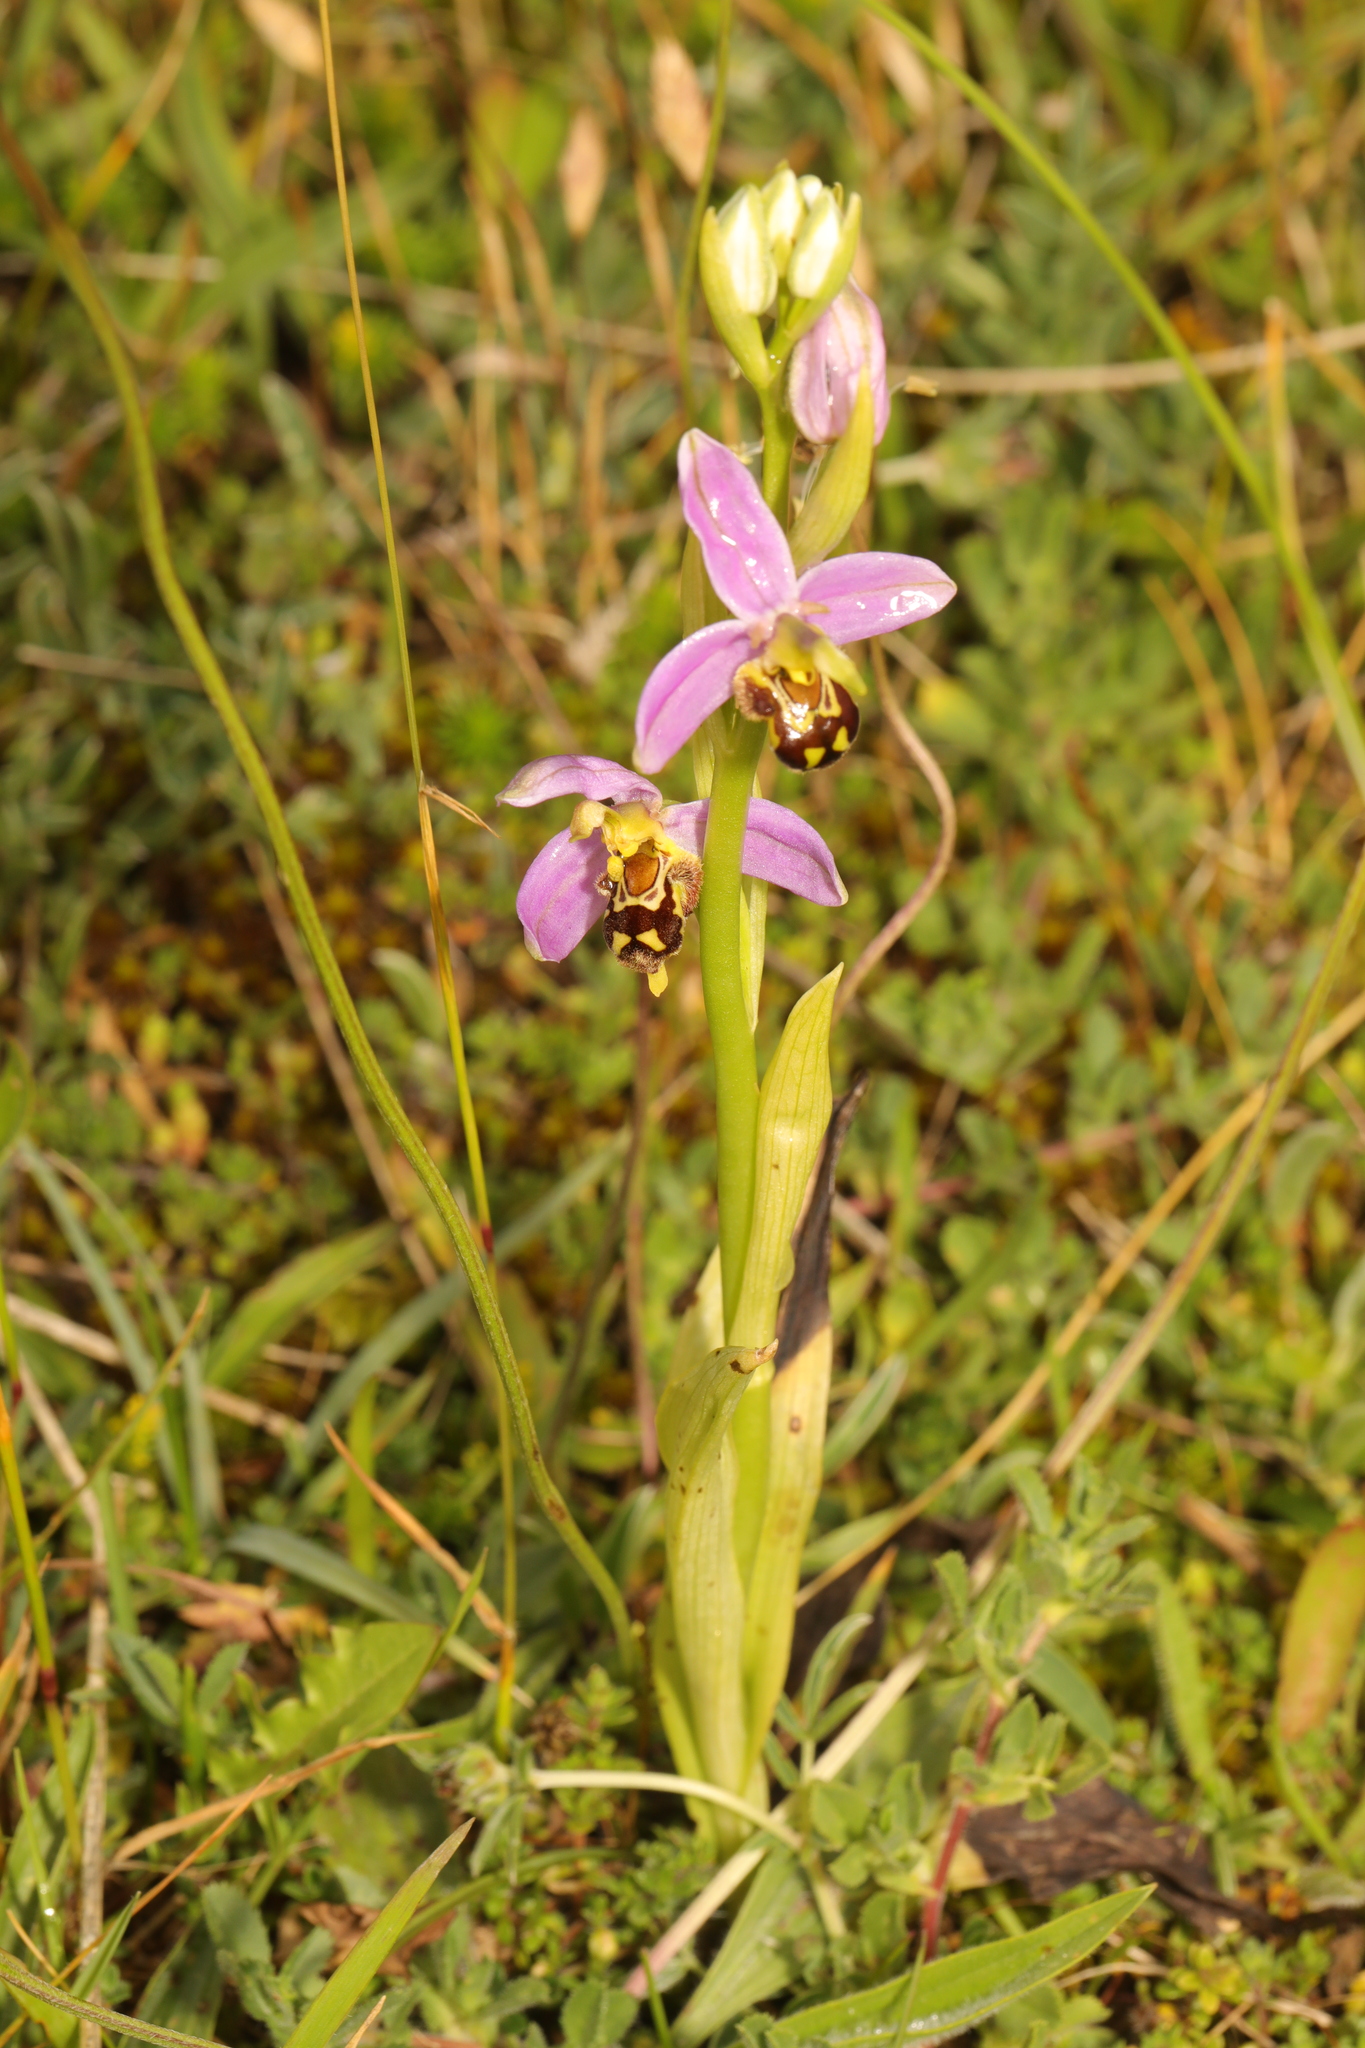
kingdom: Plantae
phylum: Tracheophyta
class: Liliopsida
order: Asparagales
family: Orchidaceae
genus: Ophrys
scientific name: Ophrys apifera
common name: Bee orchid
